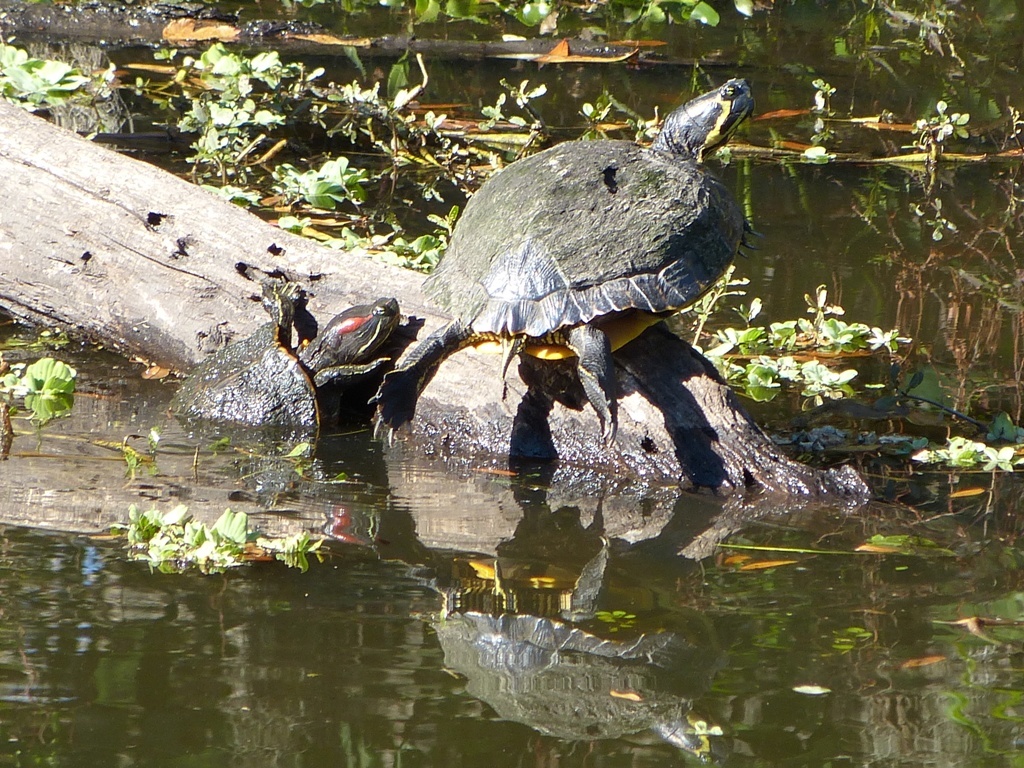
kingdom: Animalia
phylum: Chordata
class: Testudines
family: Emydidae
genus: Trachemys
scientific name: Trachemys scripta
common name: Slider
